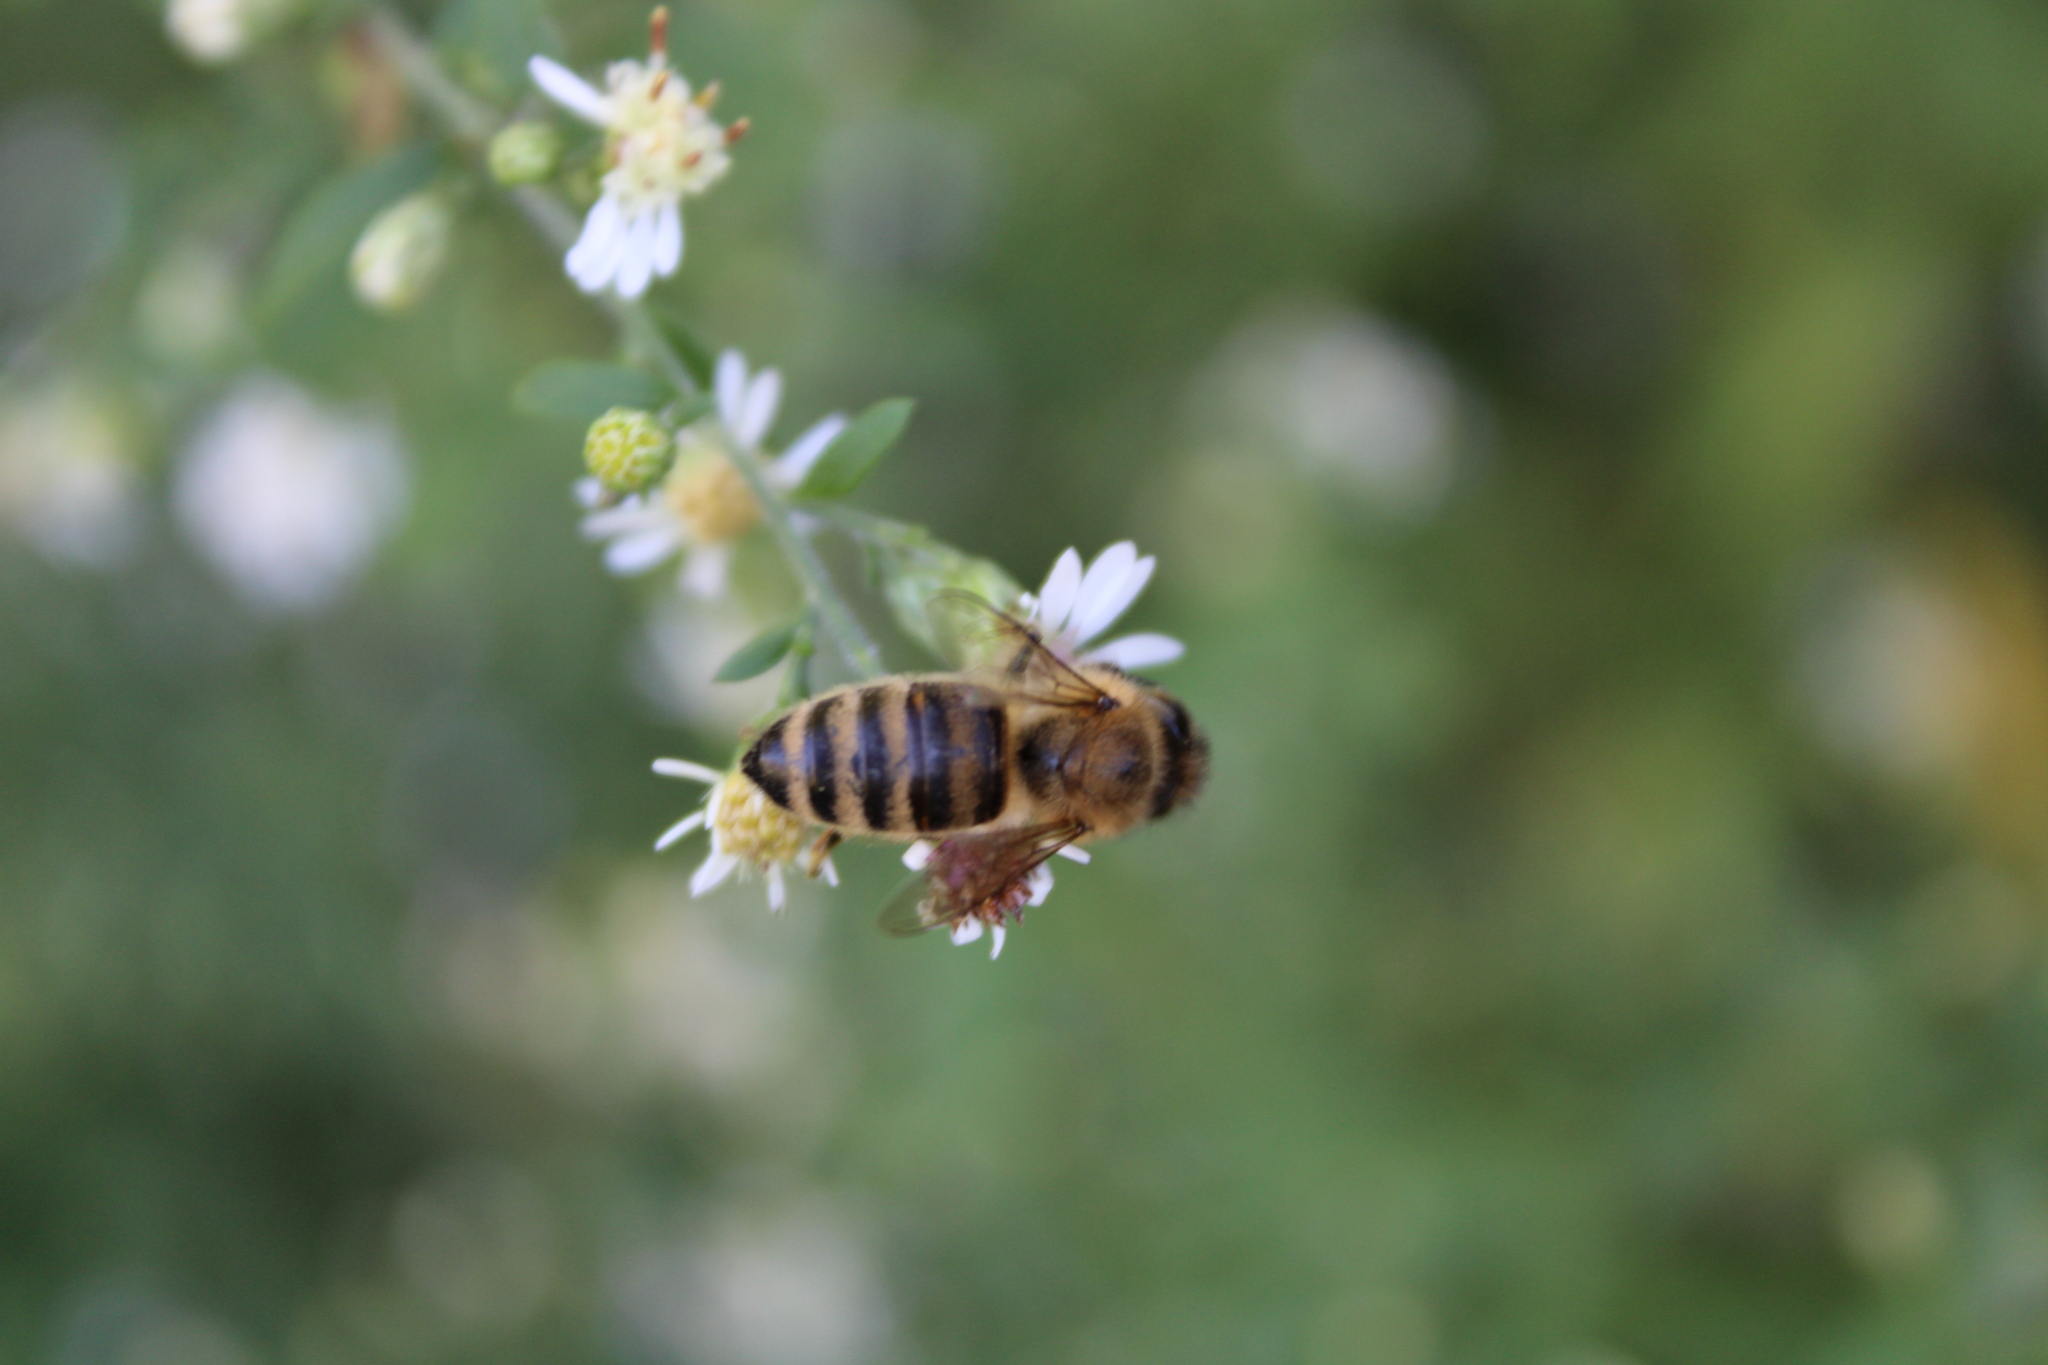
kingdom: Animalia
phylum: Arthropoda
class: Insecta
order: Hymenoptera
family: Apidae
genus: Apis
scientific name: Apis mellifera
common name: Honey bee
